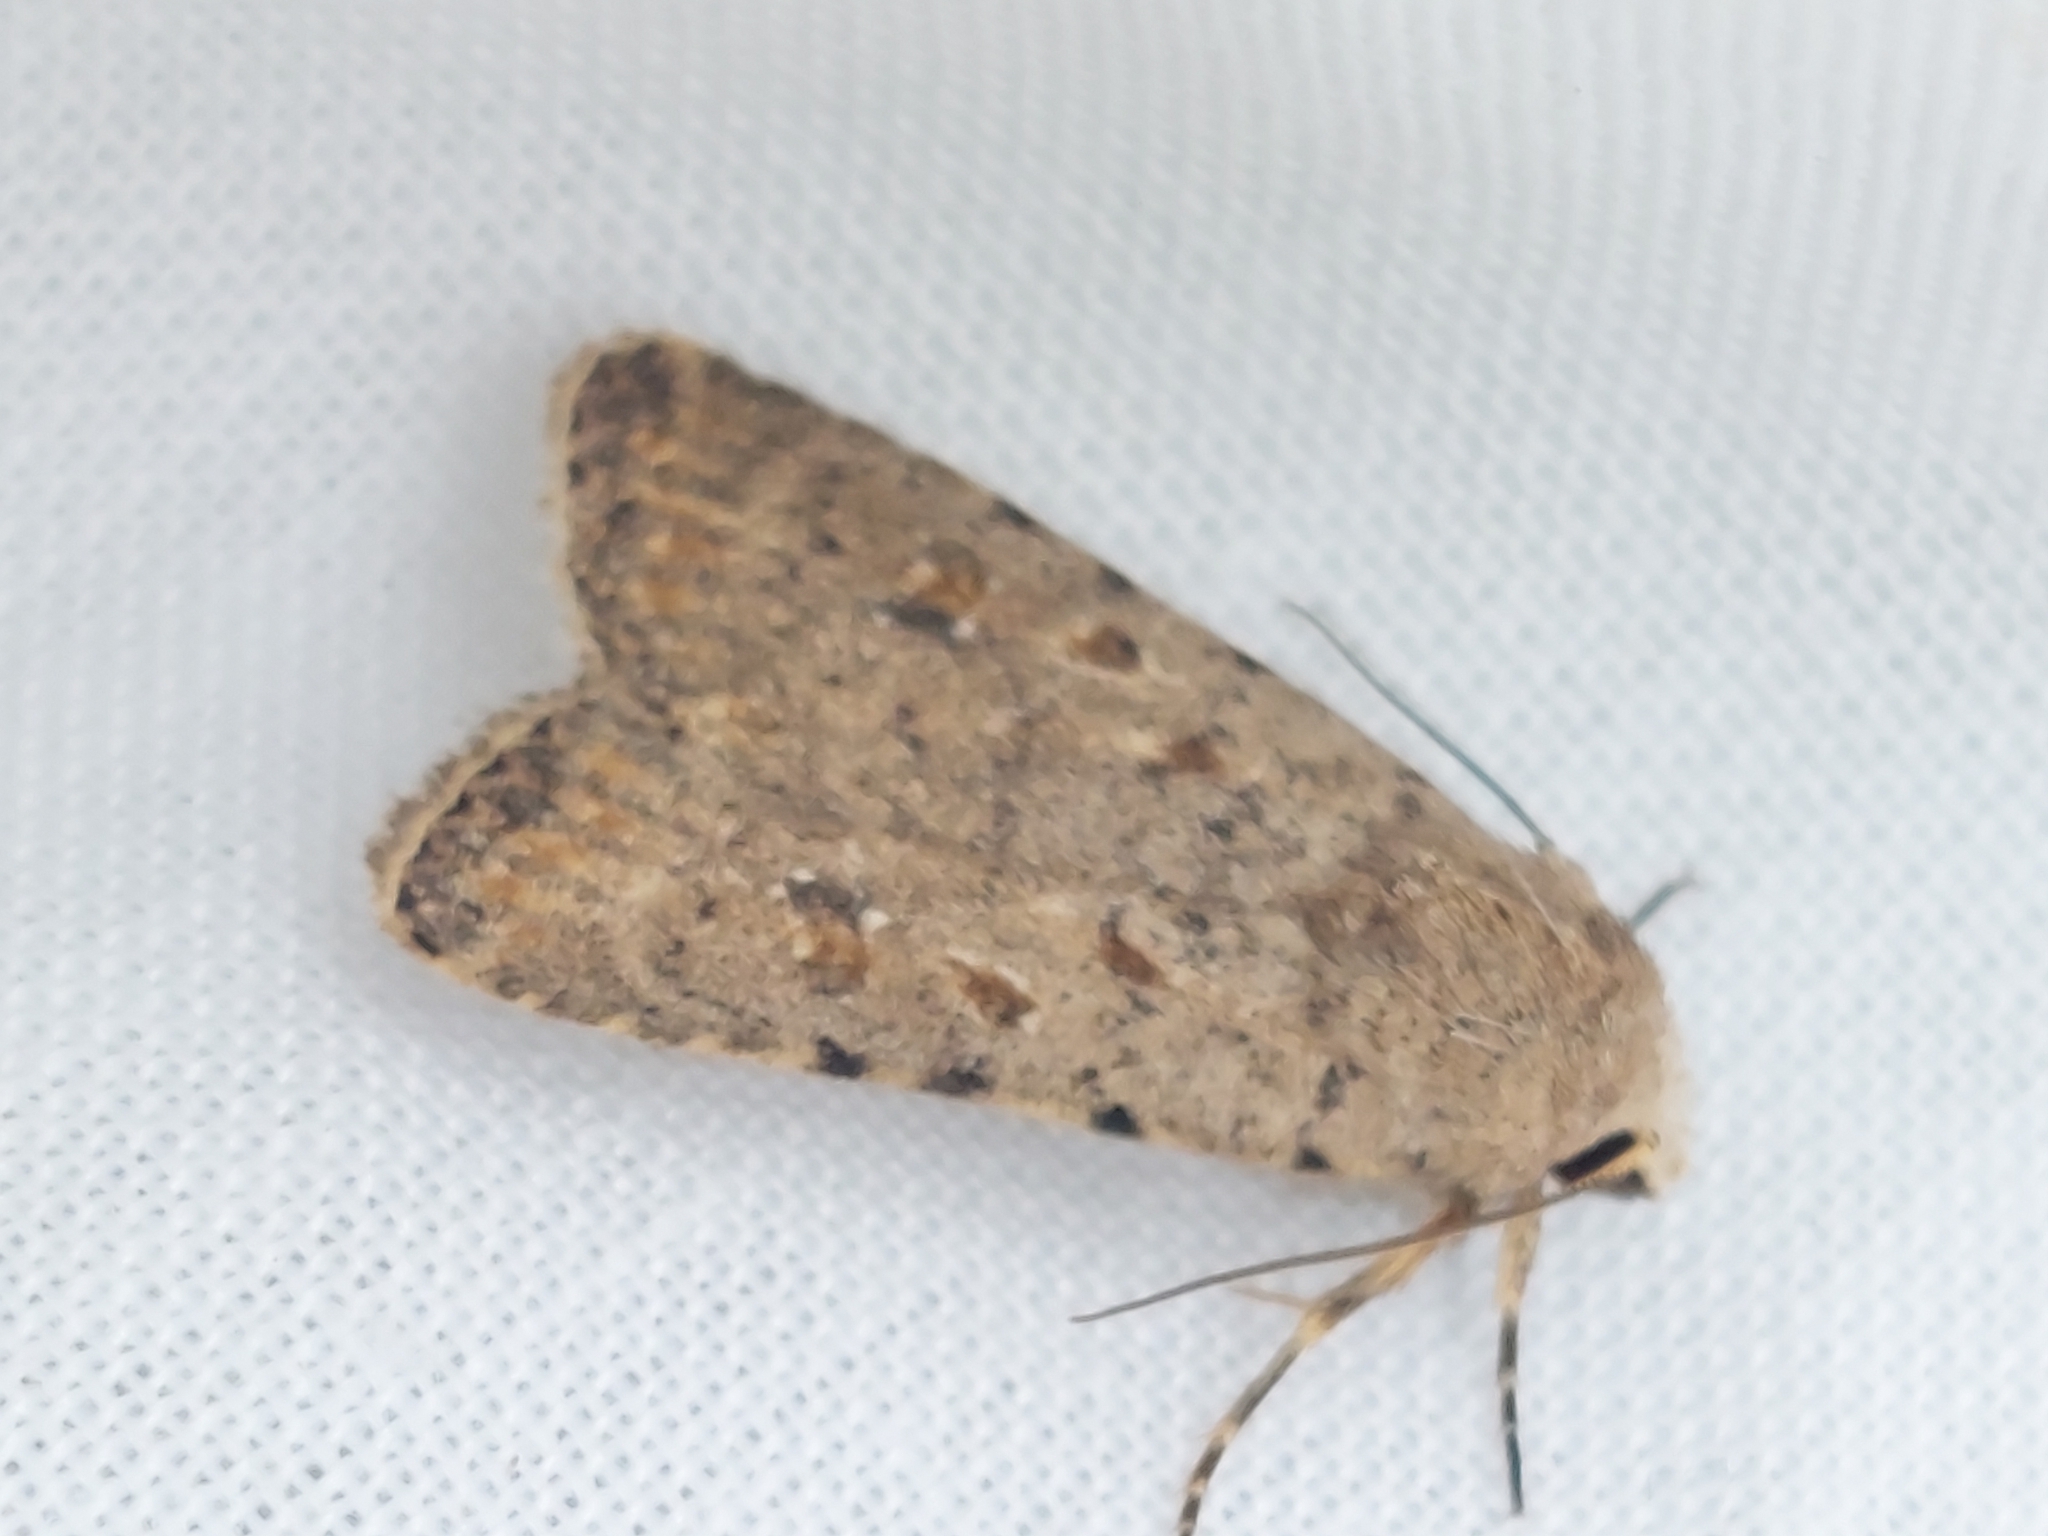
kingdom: Animalia
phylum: Arthropoda
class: Insecta
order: Lepidoptera
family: Noctuidae
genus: Caradrina
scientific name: Caradrina clavipalpis
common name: Pale mottled willow
